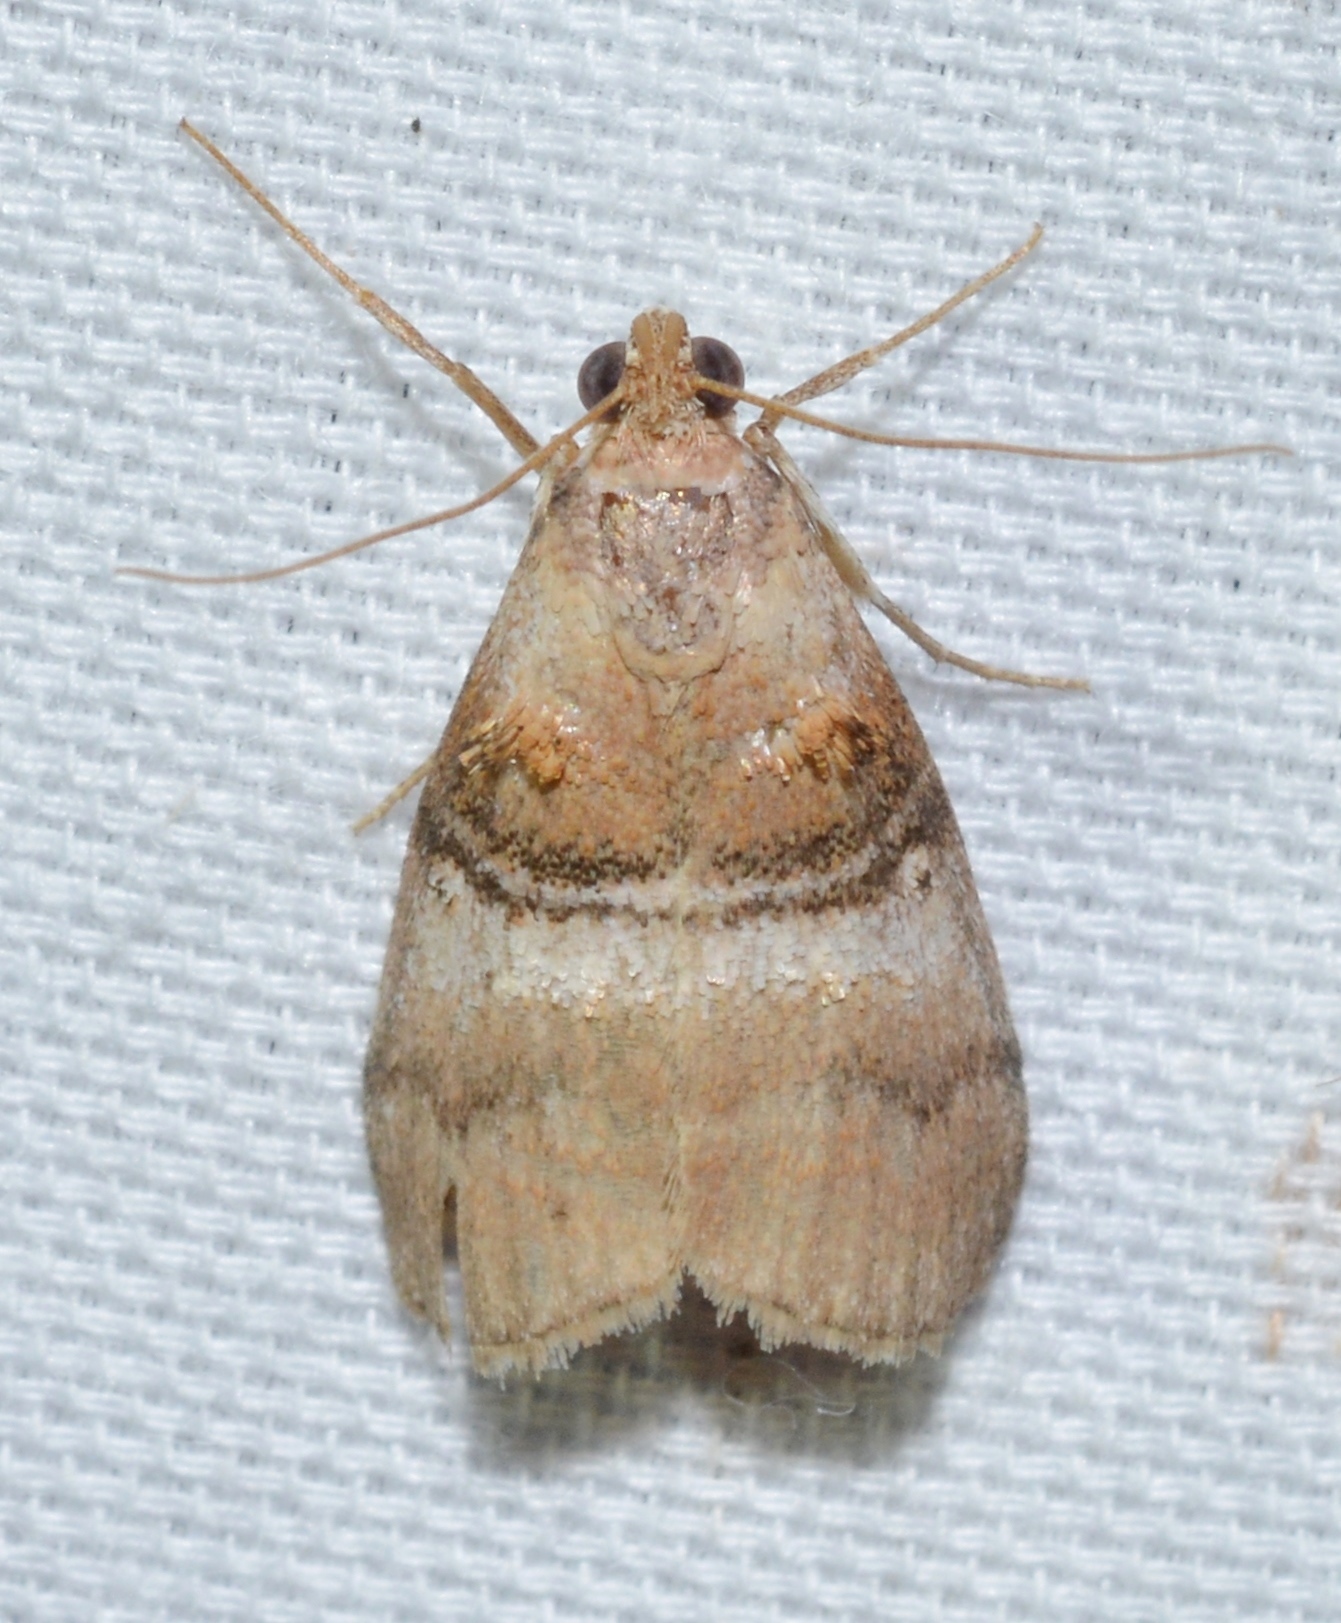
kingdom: Animalia
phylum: Arthropoda
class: Insecta
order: Lepidoptera
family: Pyralidae
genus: Pococera
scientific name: Pococera militella
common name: Sycamore webworm moth
